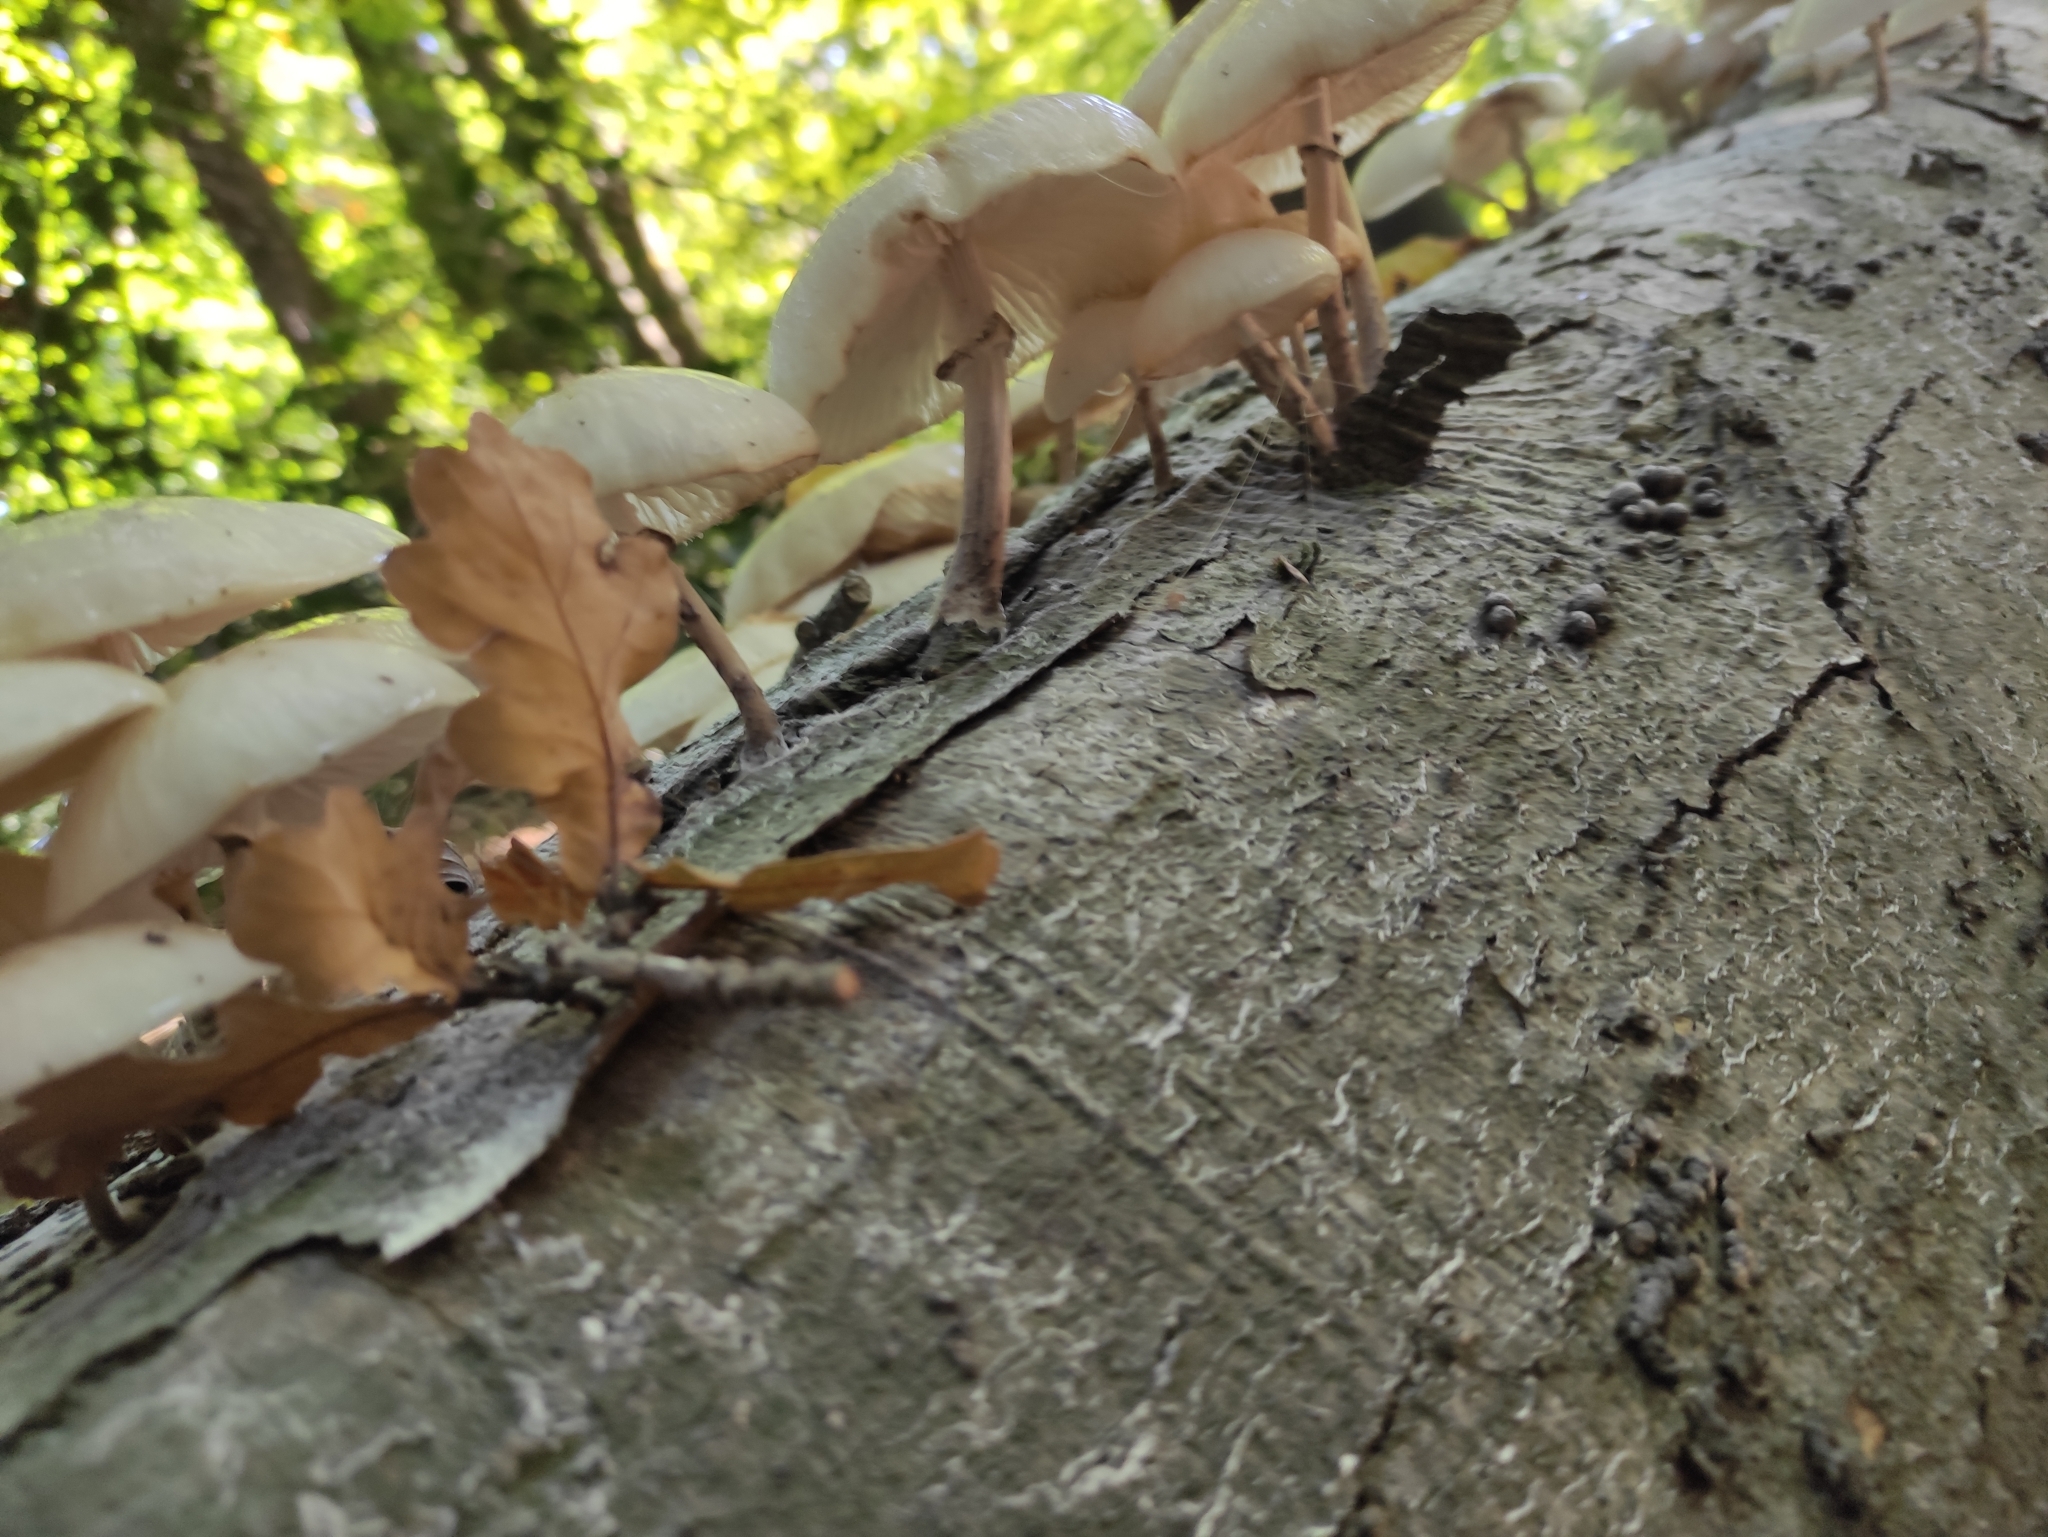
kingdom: Fungi
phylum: Basidiomycota
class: Agaricomycetes
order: Agaricales
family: Physalacriaceae
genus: Mucidula
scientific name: Mucidula mucida
